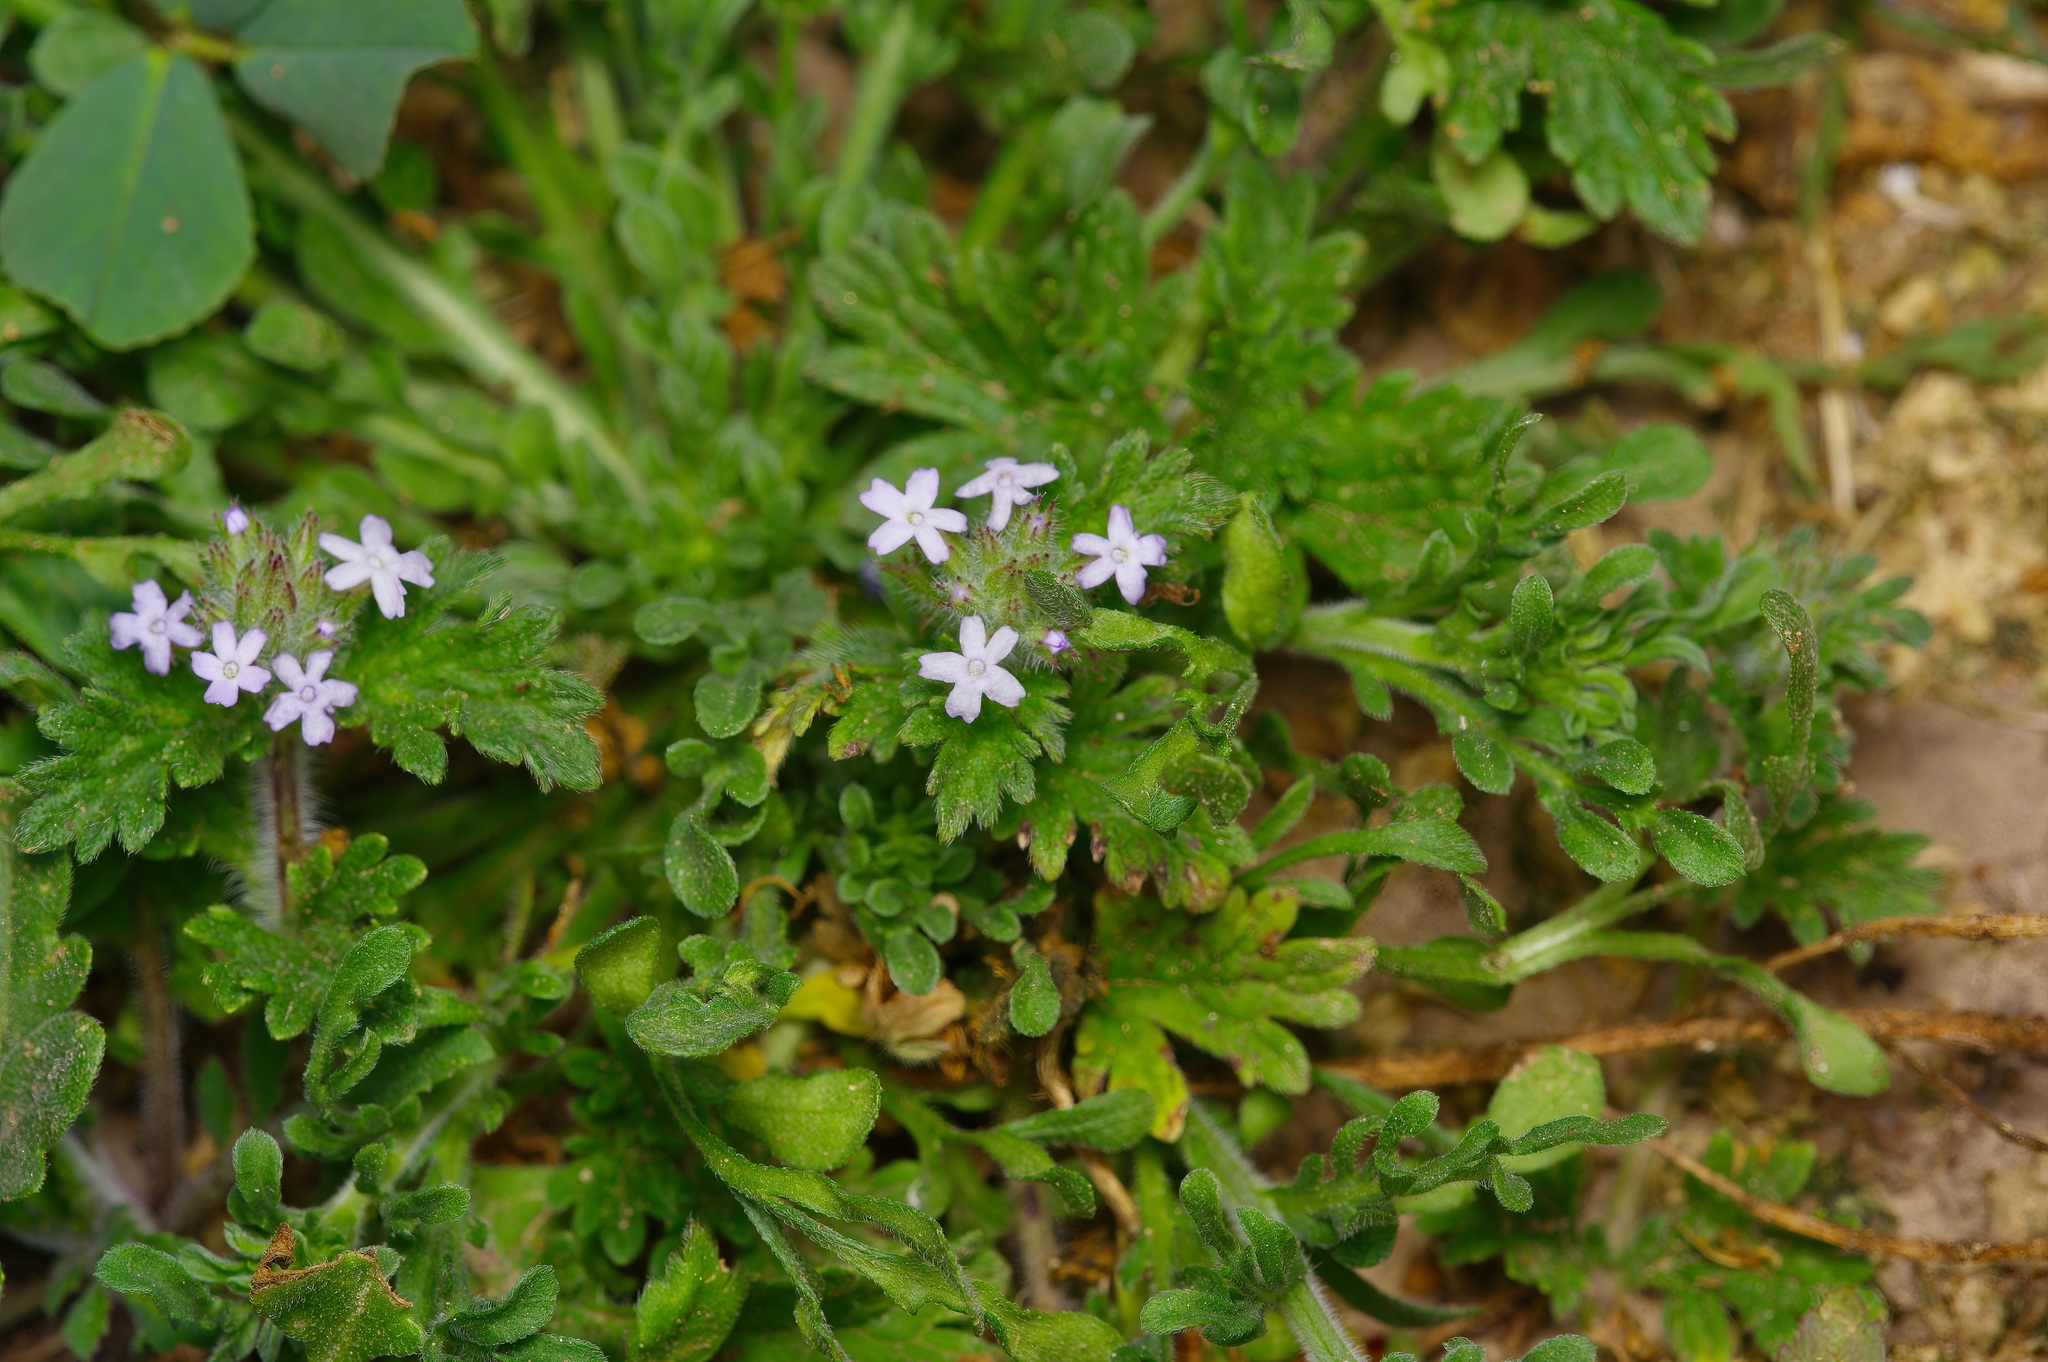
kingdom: Plantae
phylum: Tracheophyta
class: Magnoliopsida
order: Lamiales
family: Verbenaceae
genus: Verbena
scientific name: Verbena pumila
